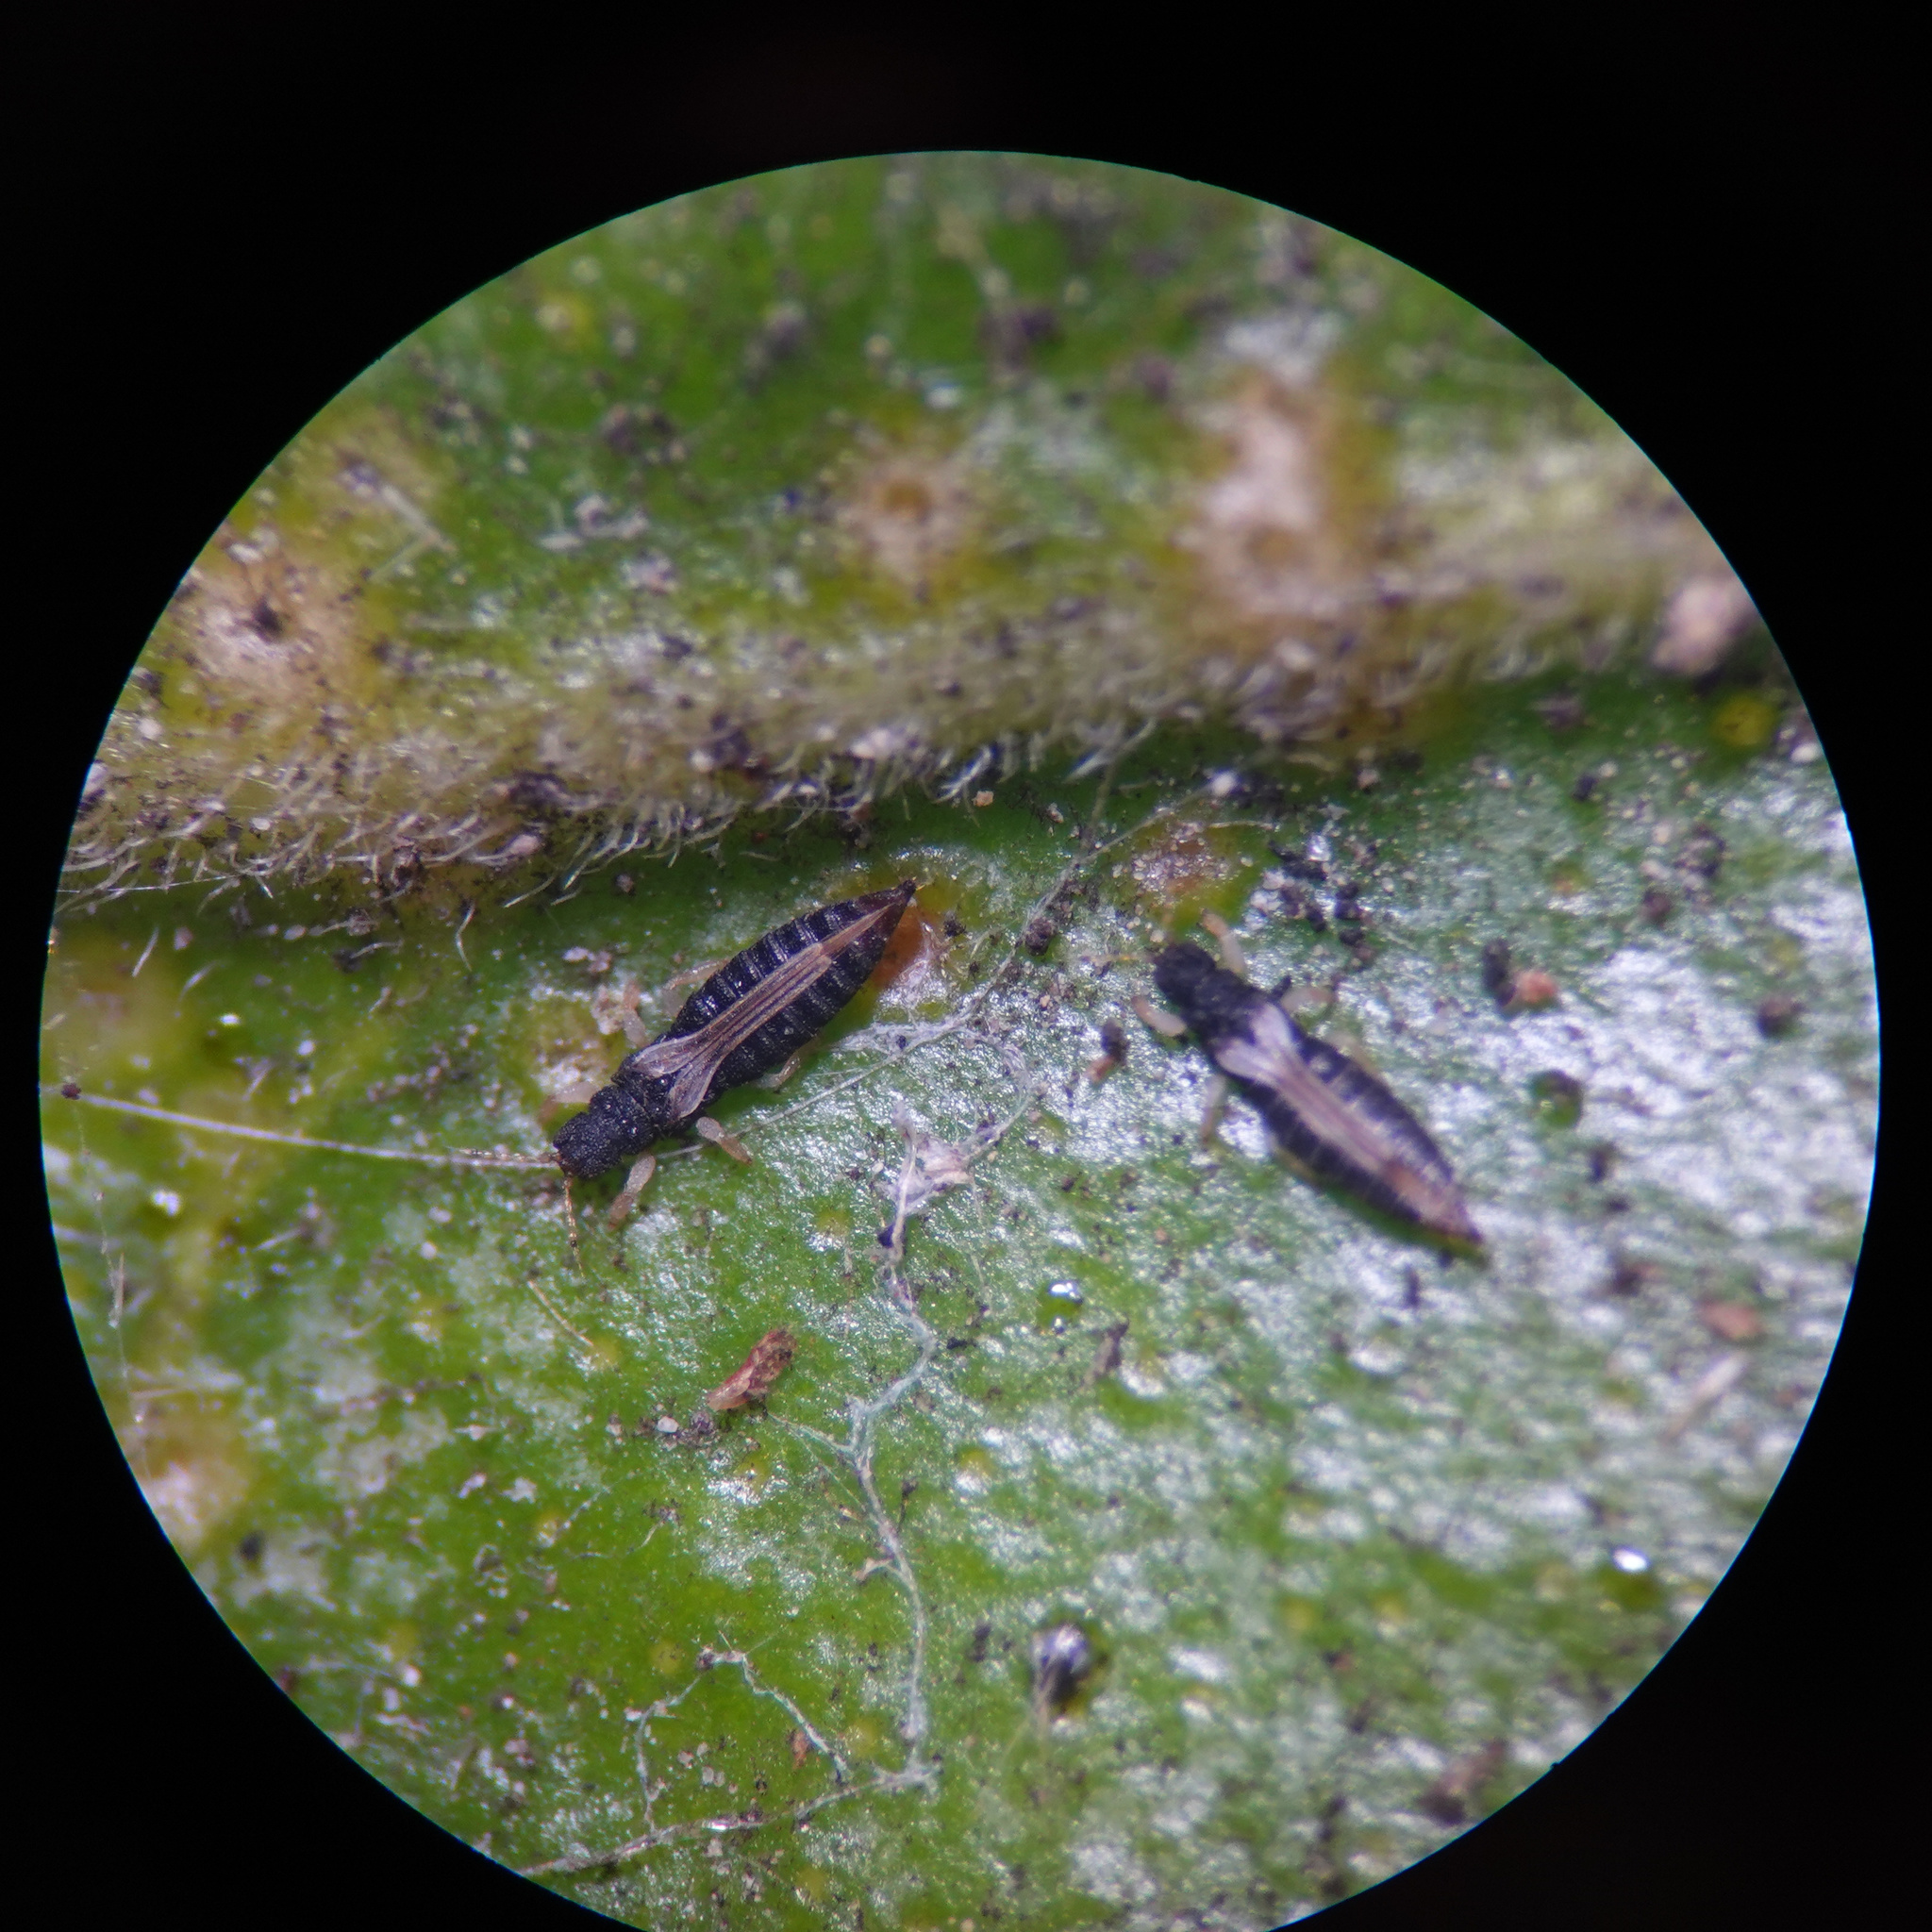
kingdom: Animalia
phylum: Arthropoda
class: Insecta
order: Thysanoptera
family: Thripidae
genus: Heliothrips
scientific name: Heliothrips haemorrhoidalis
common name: Thrips
